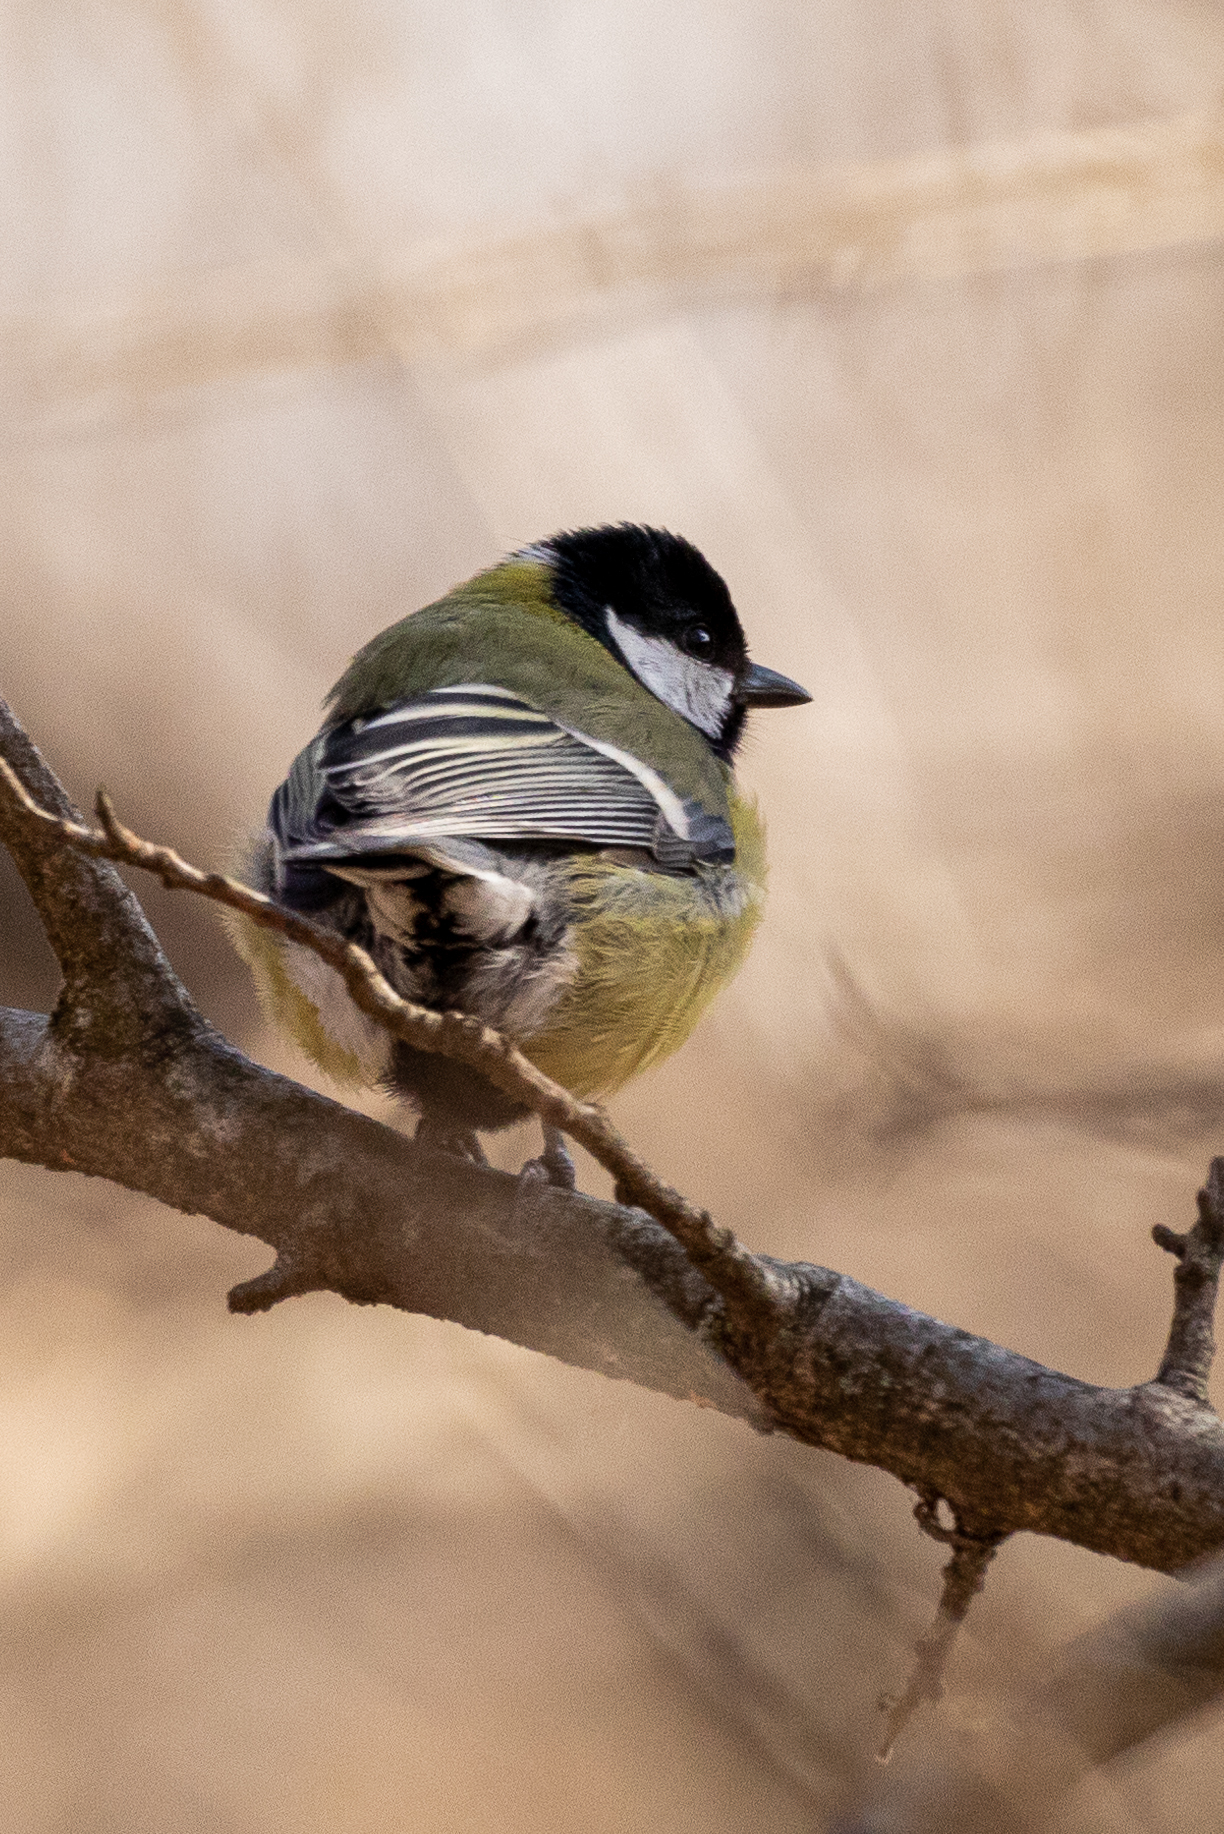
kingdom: Animalia
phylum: Chordata
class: Aves
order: Passeriformes
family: Paridae
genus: Parus
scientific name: Parus major
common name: Great tit
